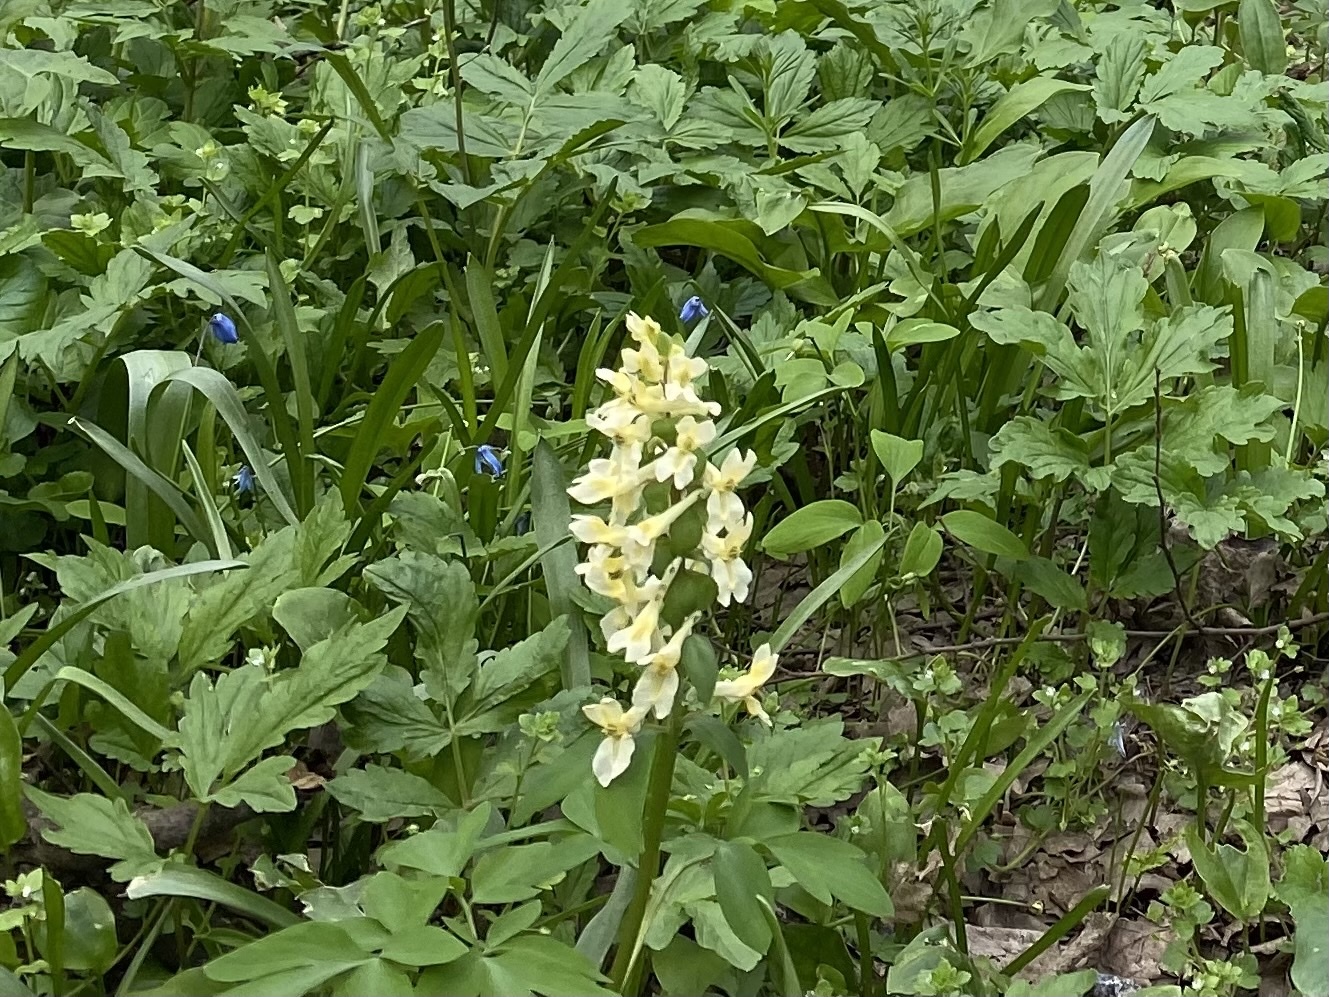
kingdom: Plantae
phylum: Tracheophyta
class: Magnoliopsida
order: Ranunculales
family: Papaveraceae
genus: Corydalis
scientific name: Corydalis cava
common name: Hollowroot
